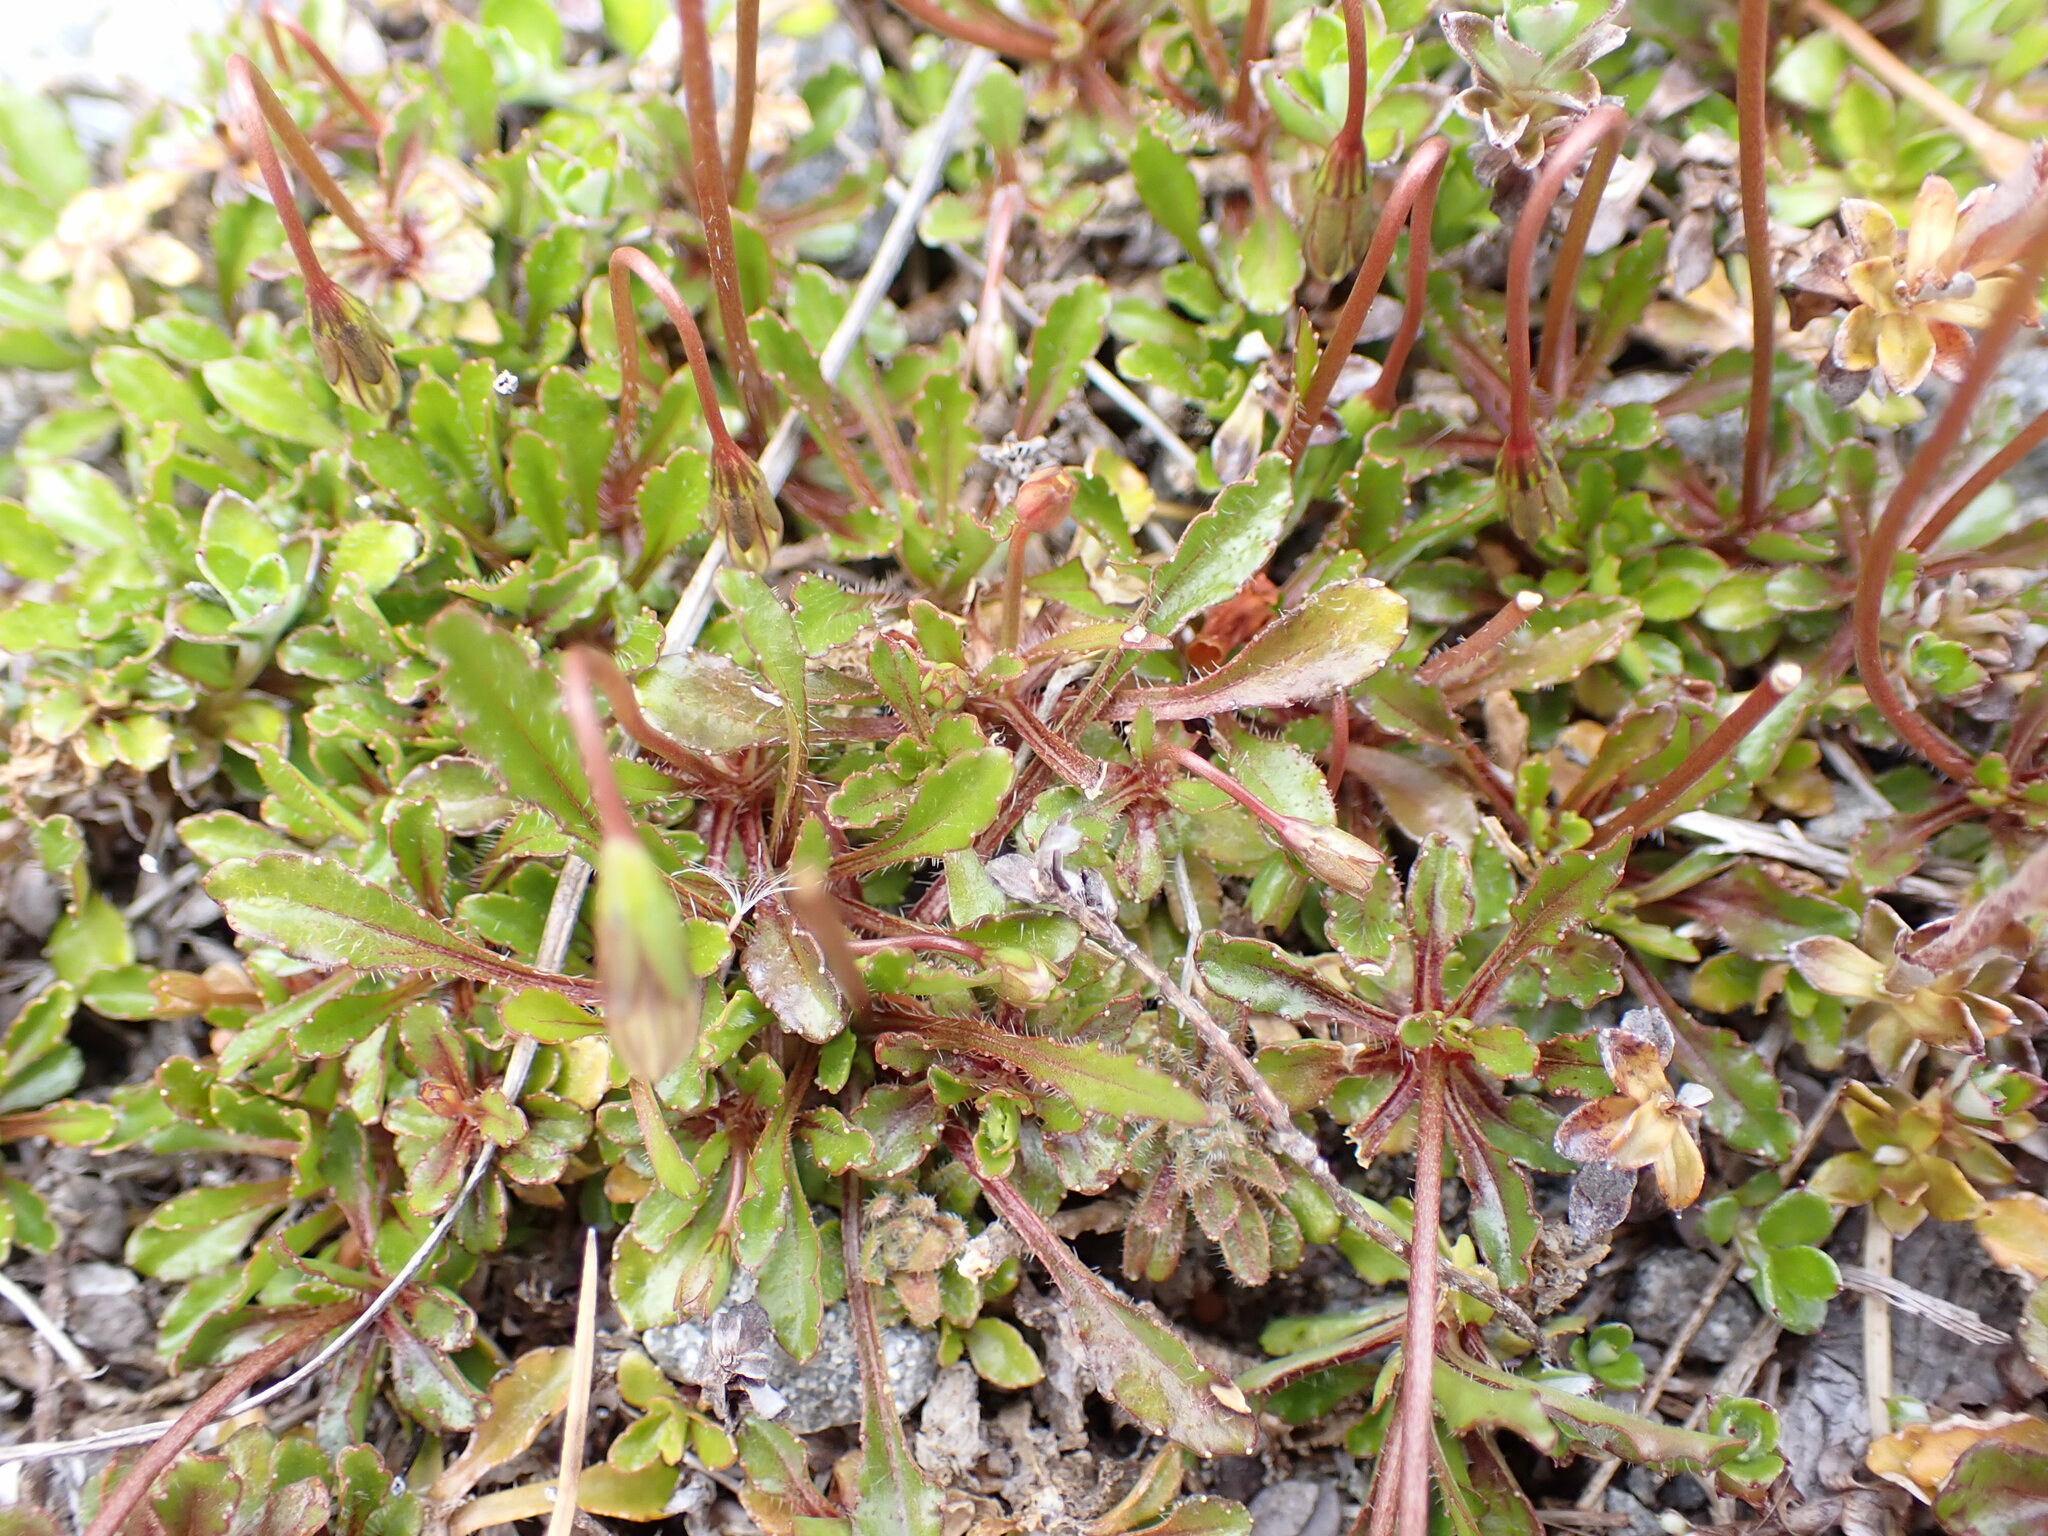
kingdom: Plantae
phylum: Tracheophyta
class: Magnoliopsida
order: Asterales
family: Campanulaceae
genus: Wahlenbergia
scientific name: Wahlenbergia albomarginata
